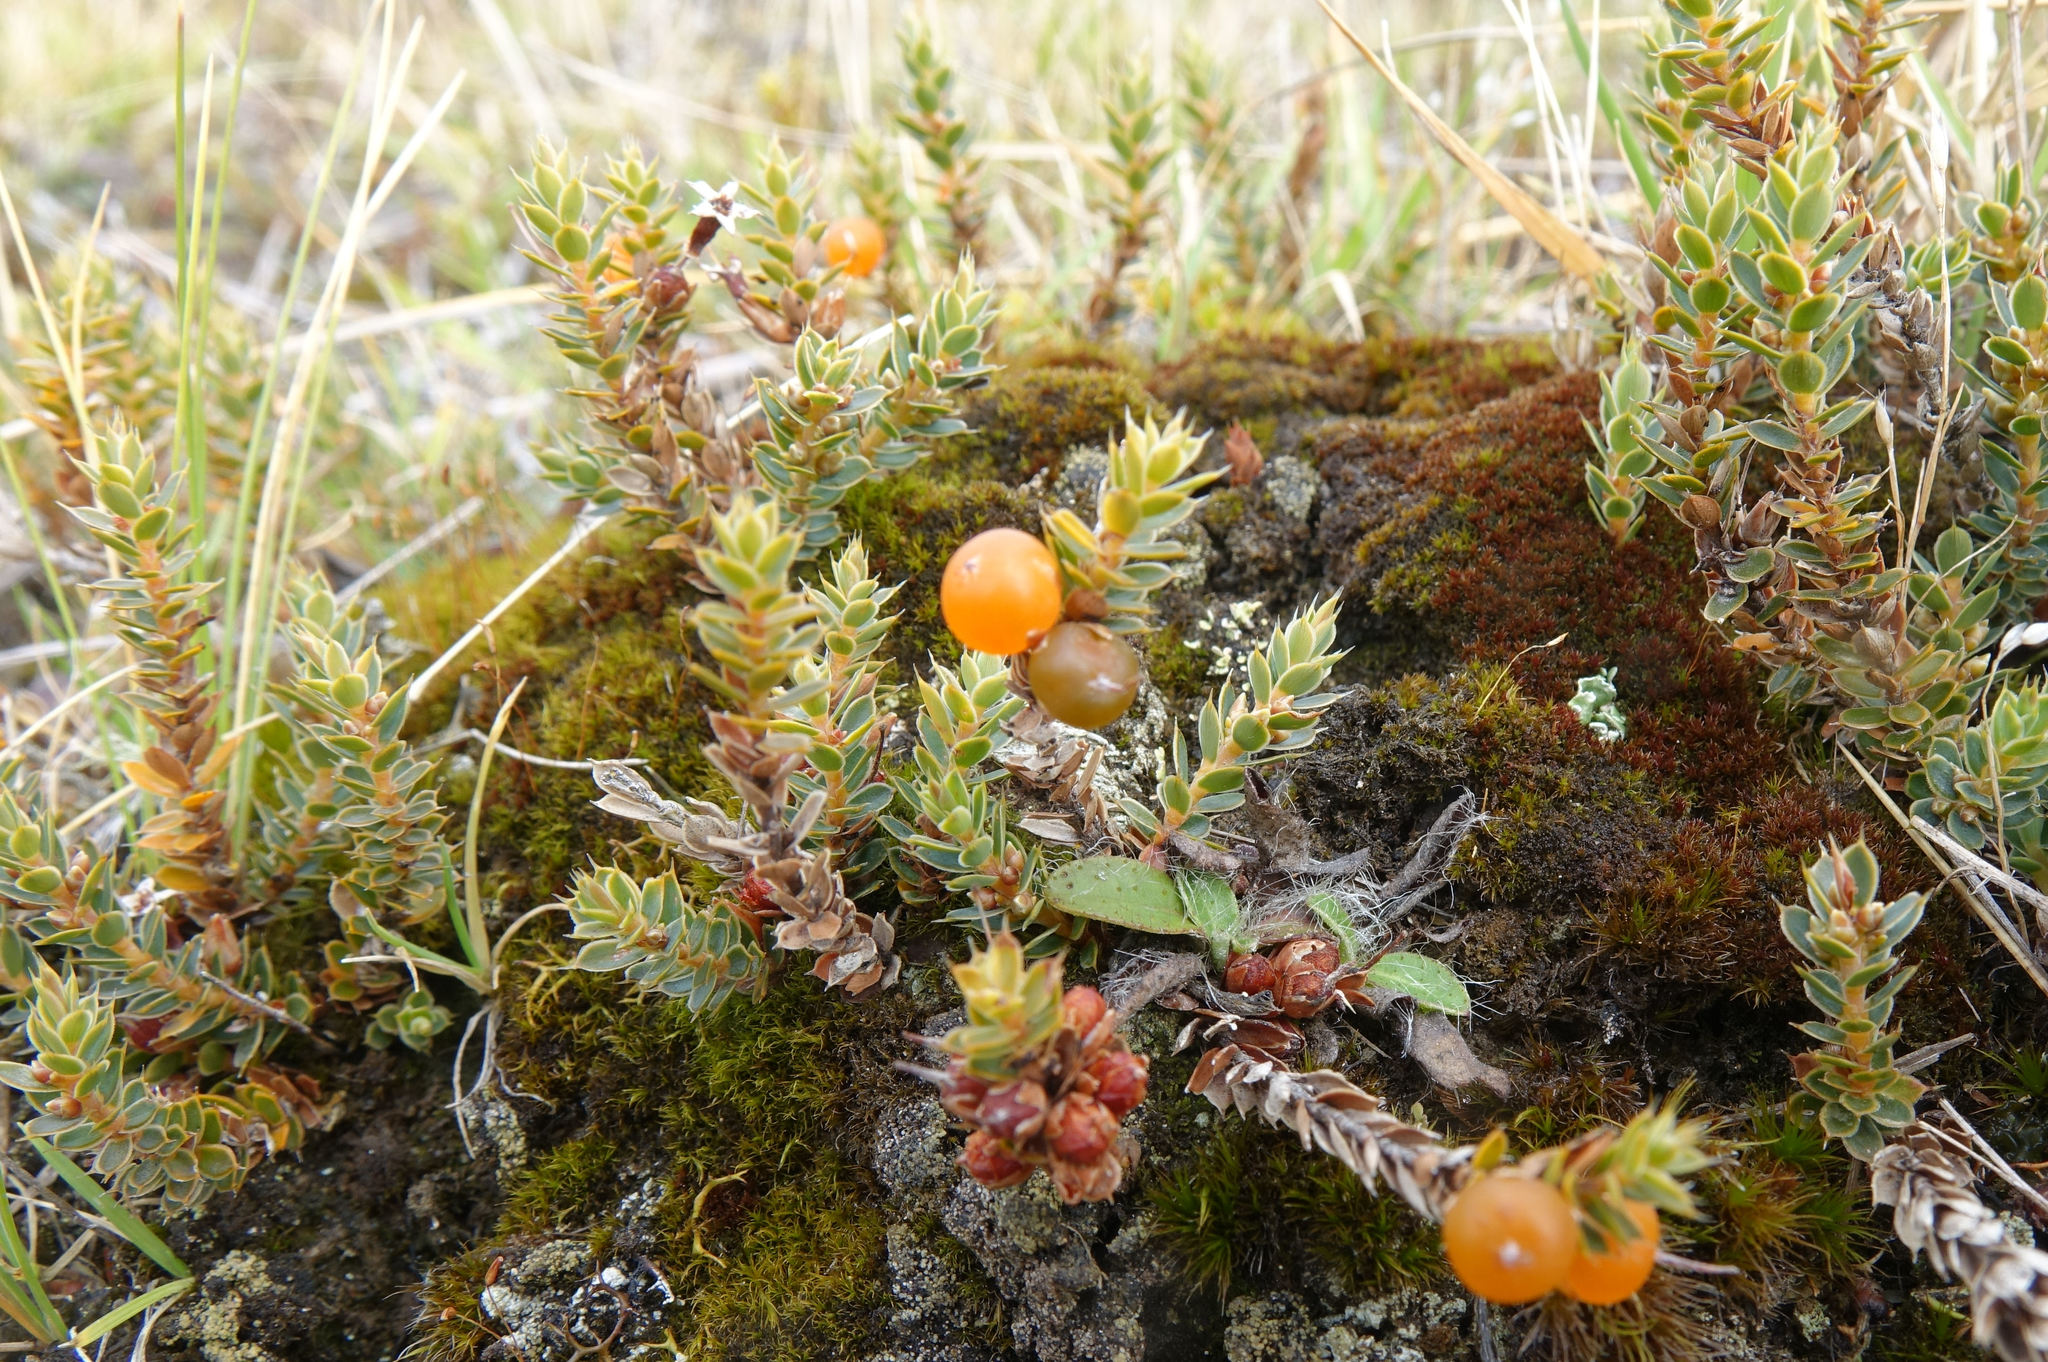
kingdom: Plantae
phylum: Tracheophyta
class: Magnoliopsida
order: Ericales
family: Ericaceae
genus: Styphelia
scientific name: Styphelia nesophila
